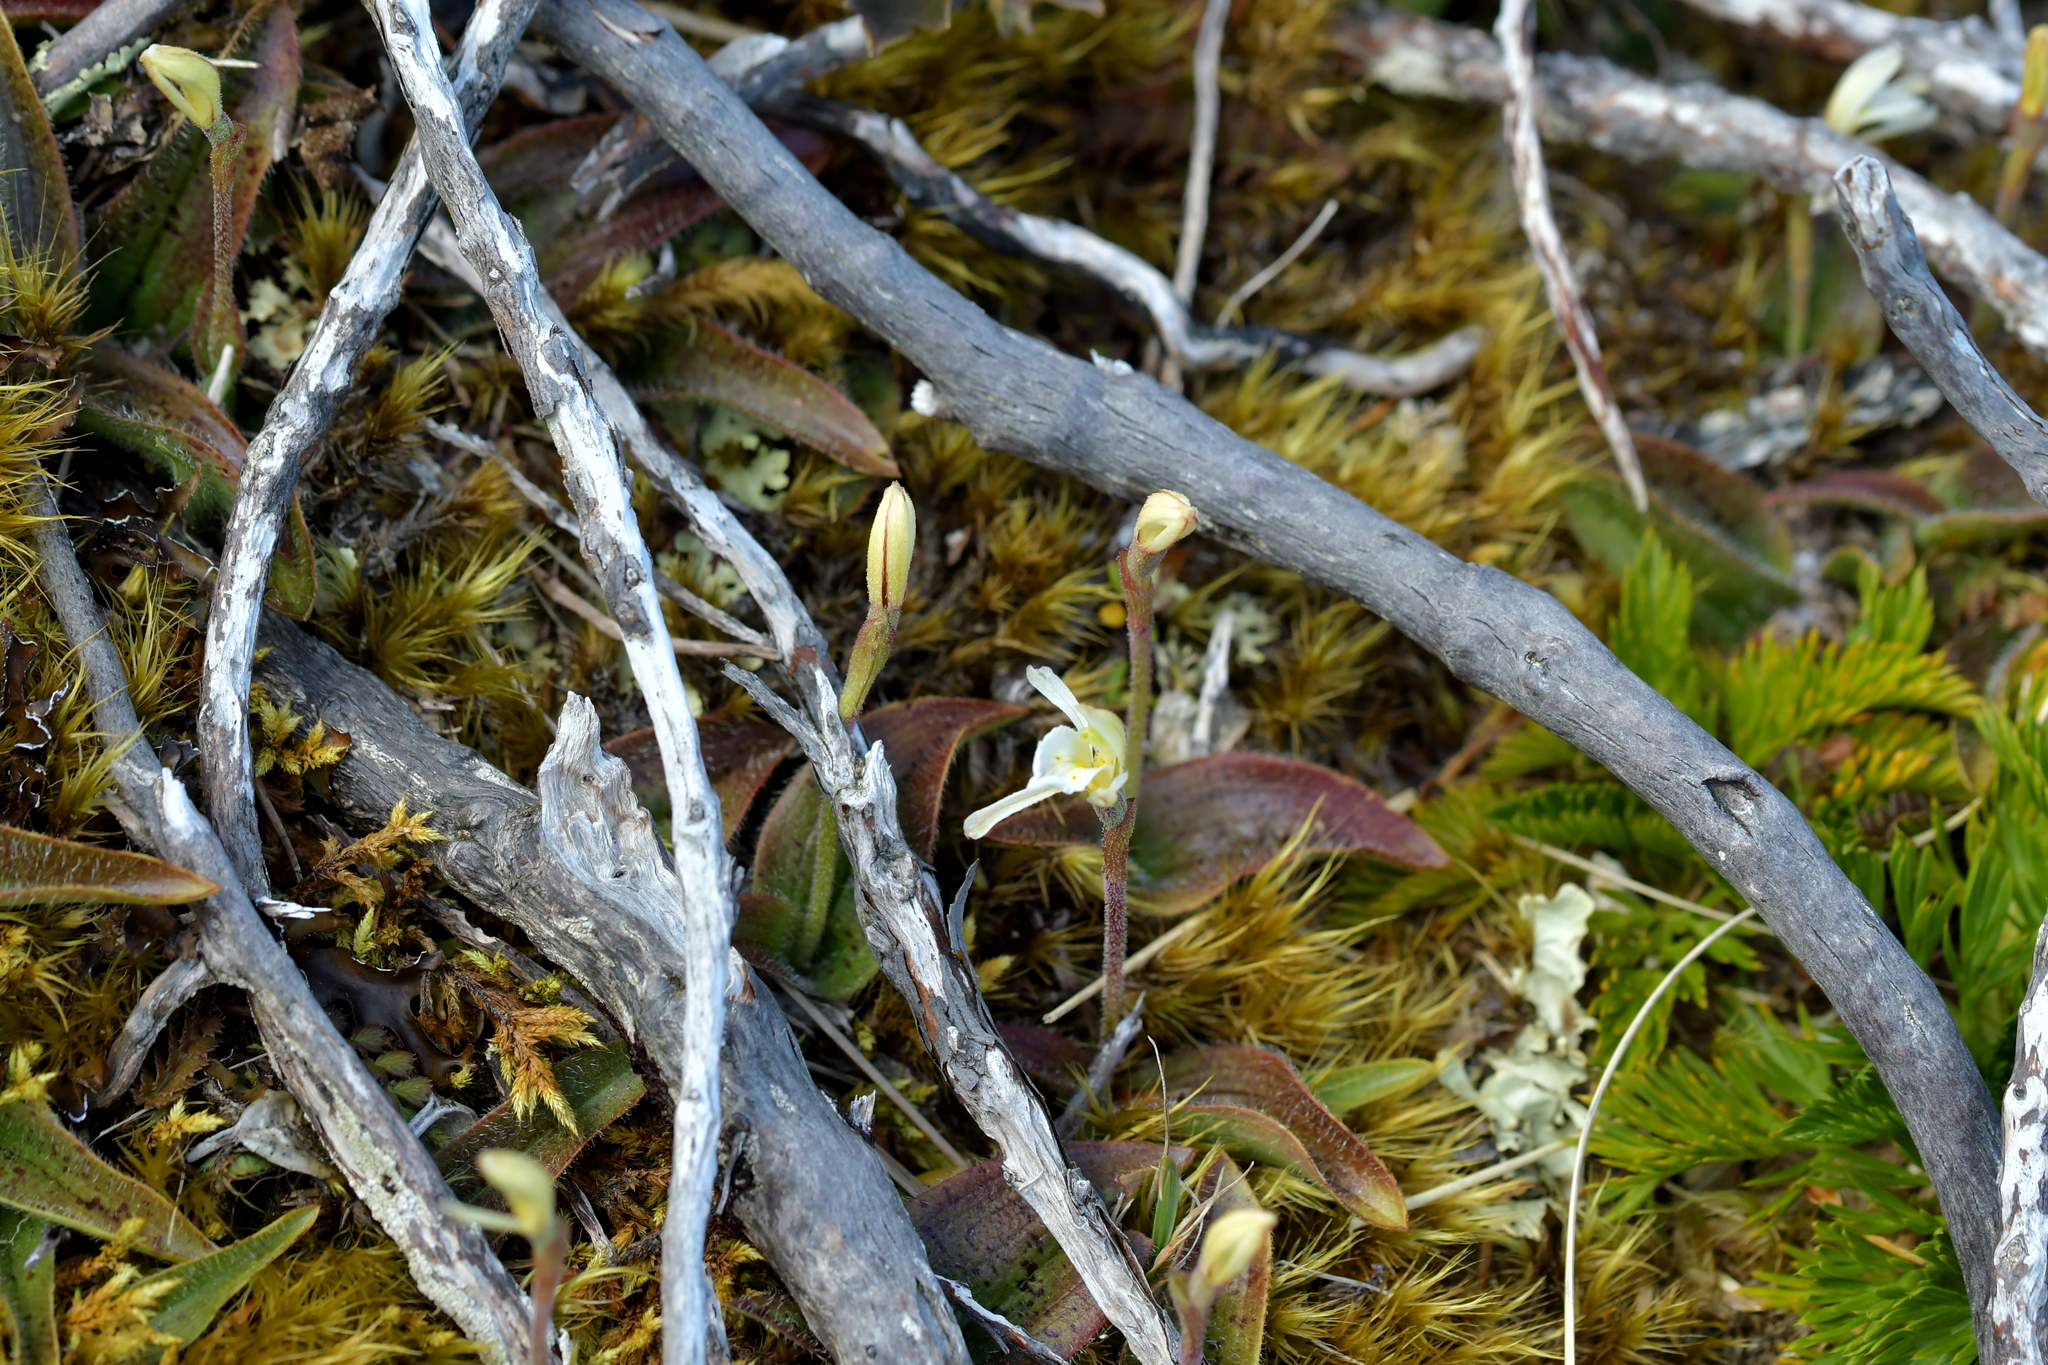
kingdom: Plantae
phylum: Tracheophyta
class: Liliopsida
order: Asparagales
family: Orchidaceae
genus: Aporostylis
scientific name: Aporostylis bifolia
